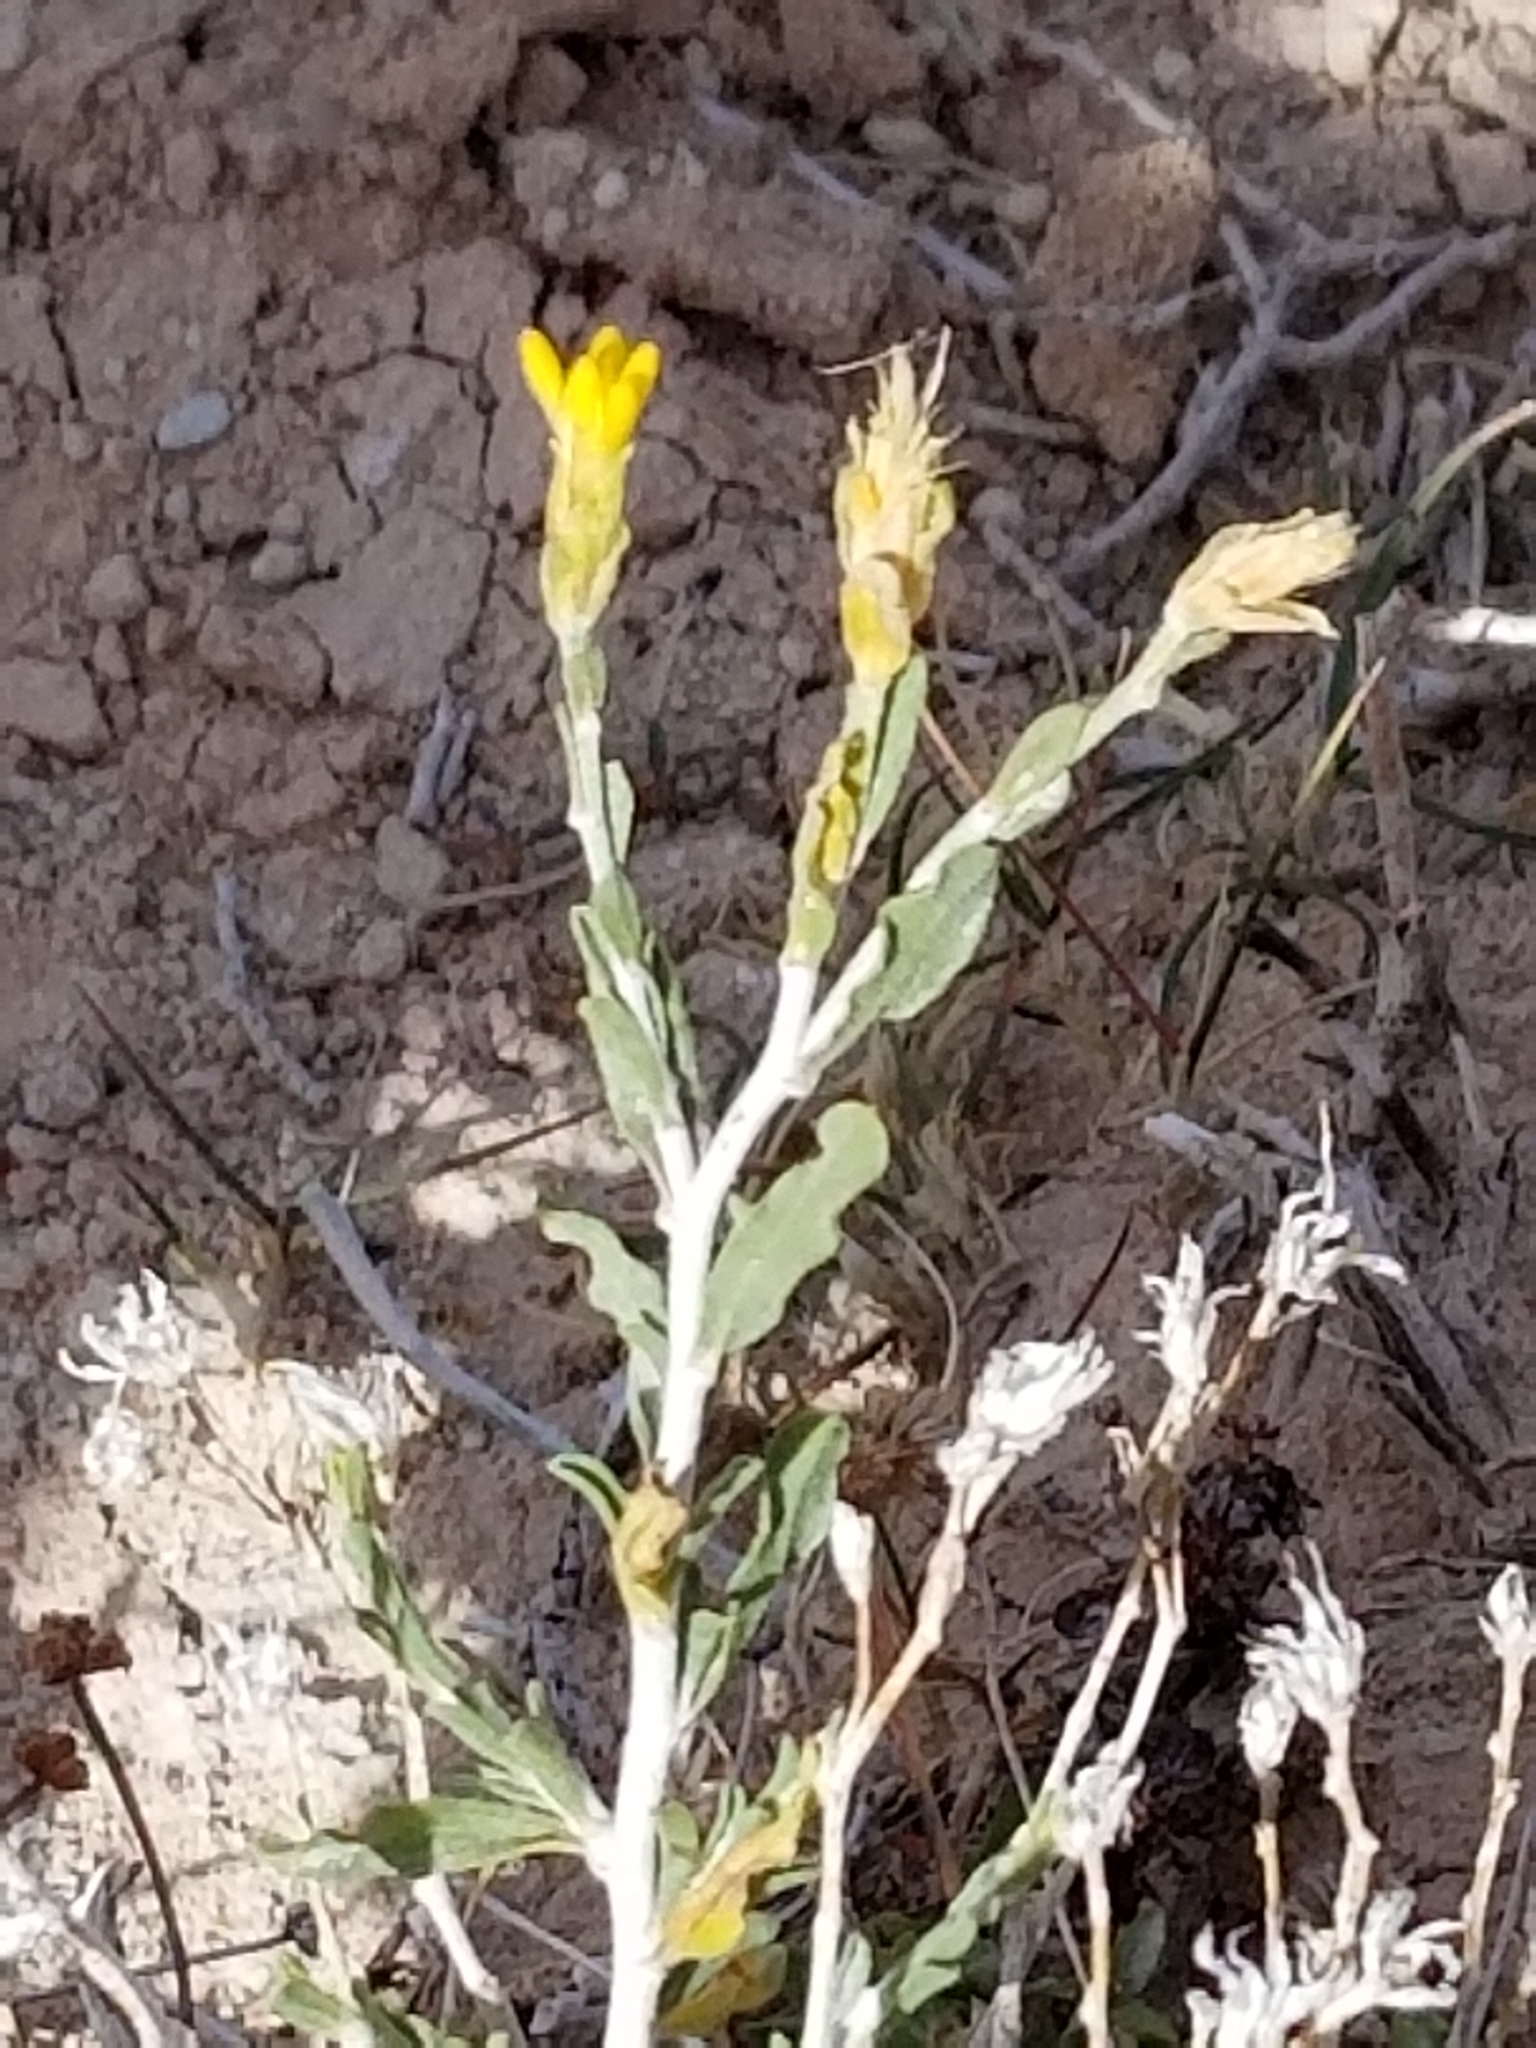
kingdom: Plantae
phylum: Tracheophyta
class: Magnoliopsida
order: Asterales
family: Asteraceae
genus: Ericameria
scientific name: Ericameria discoidea
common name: Sharp-scale goldenweed
